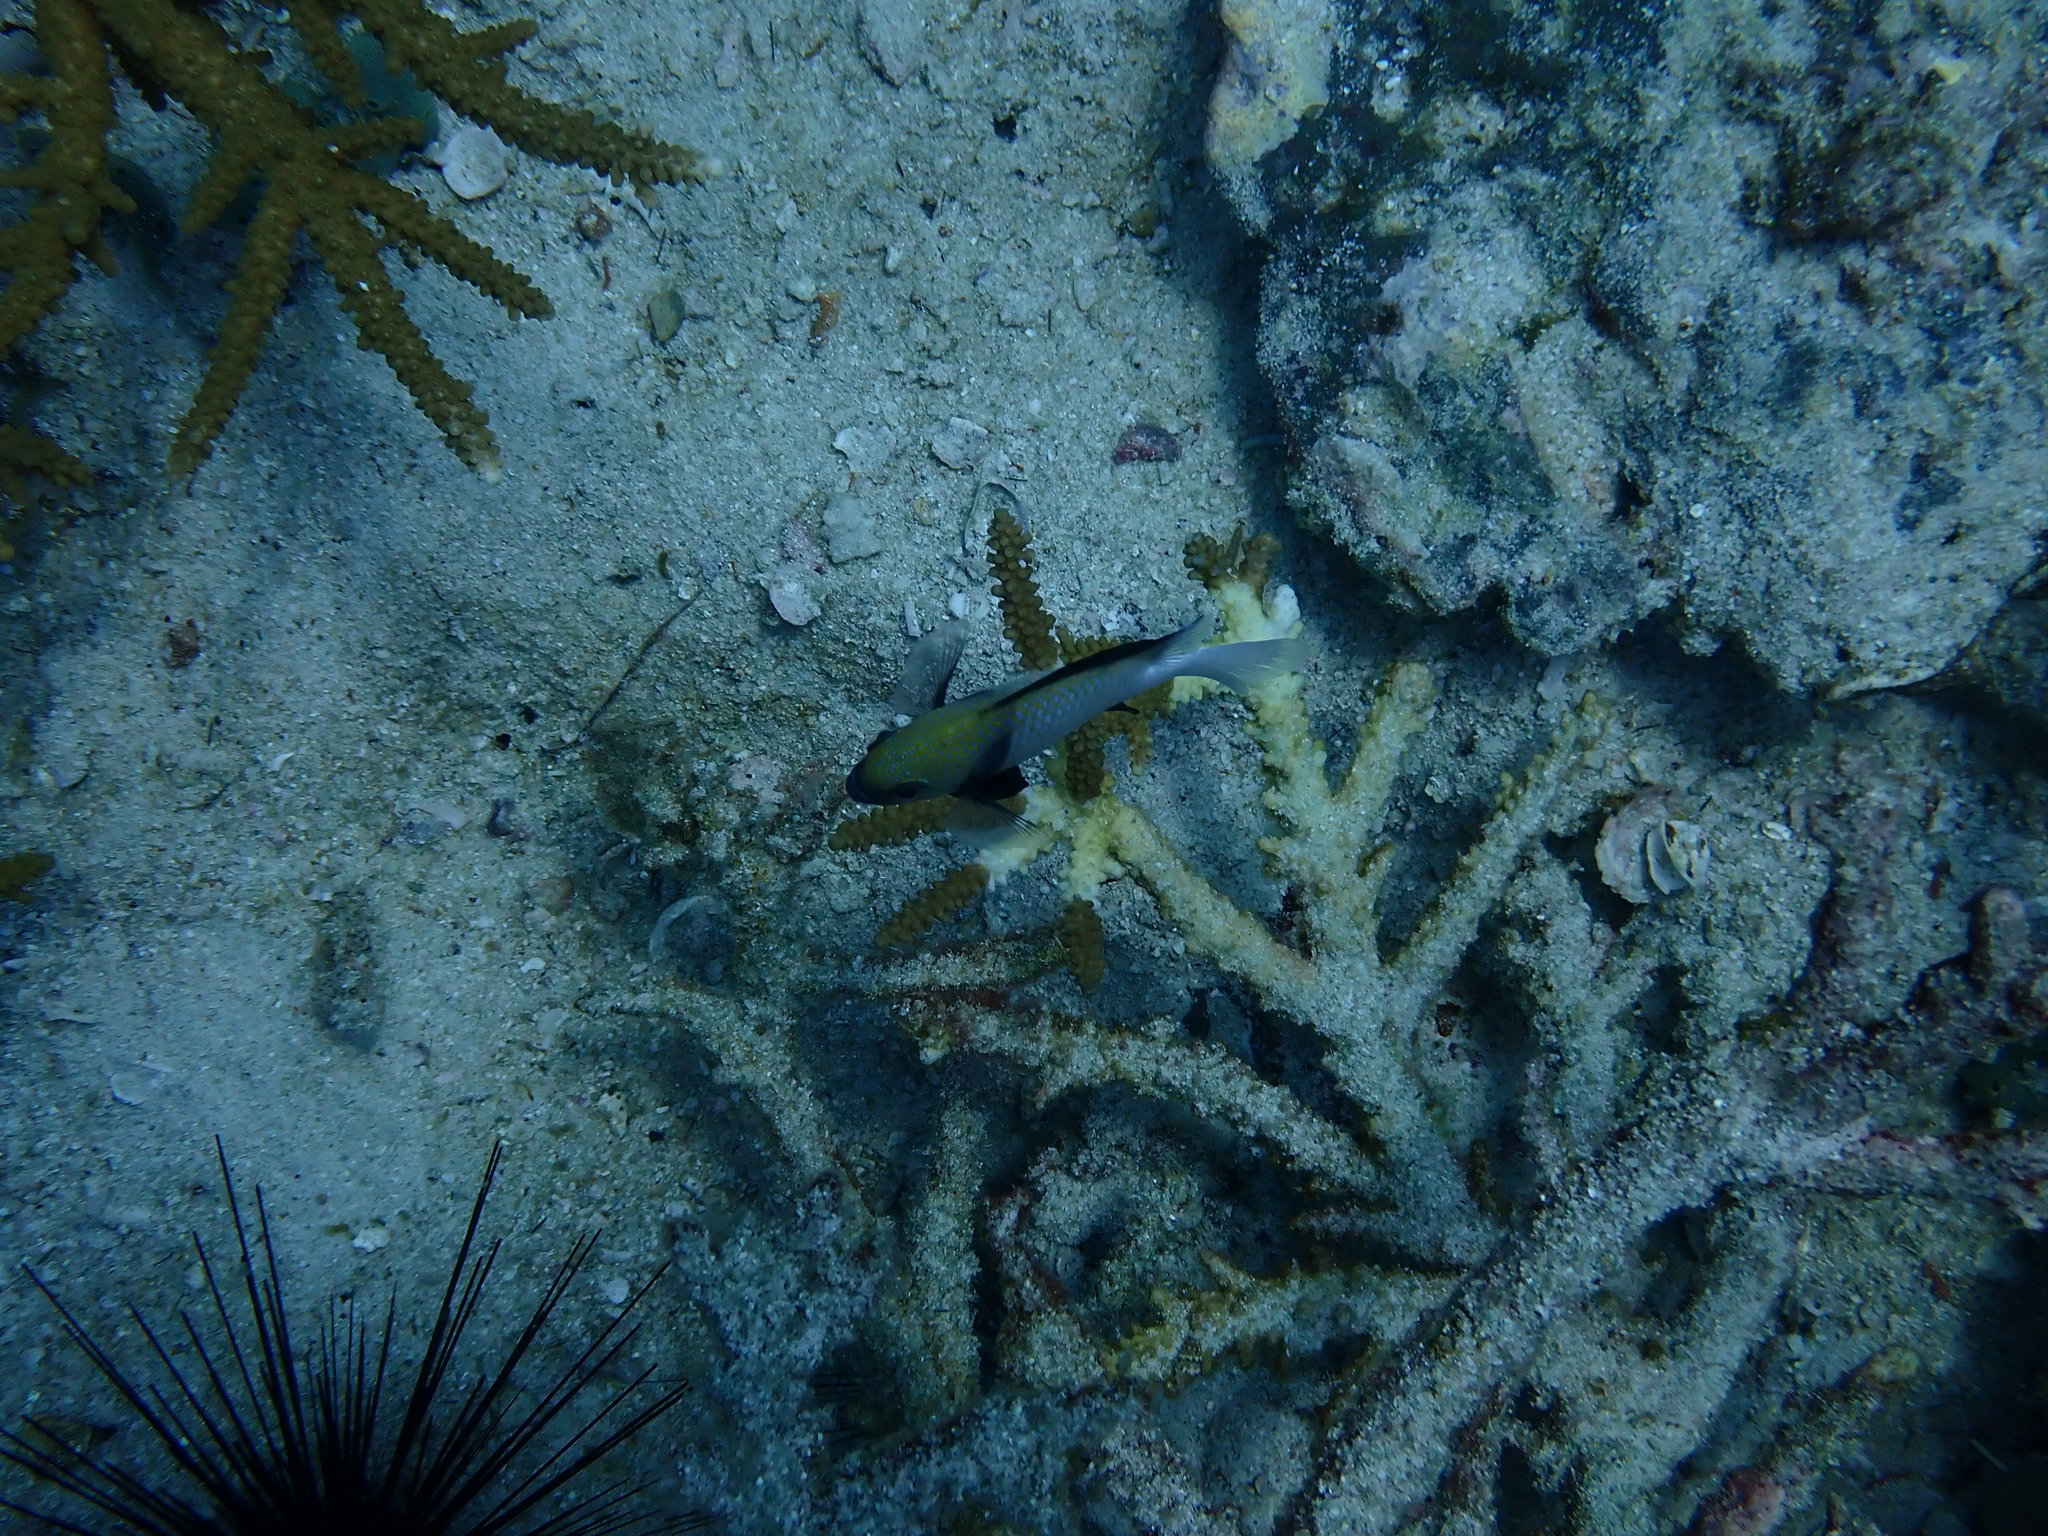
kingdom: Animalia
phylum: Chordata
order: Perciformes
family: Pomacentridae
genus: Dascyllus
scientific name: Dascyllus carneus
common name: Indian dascyllus
